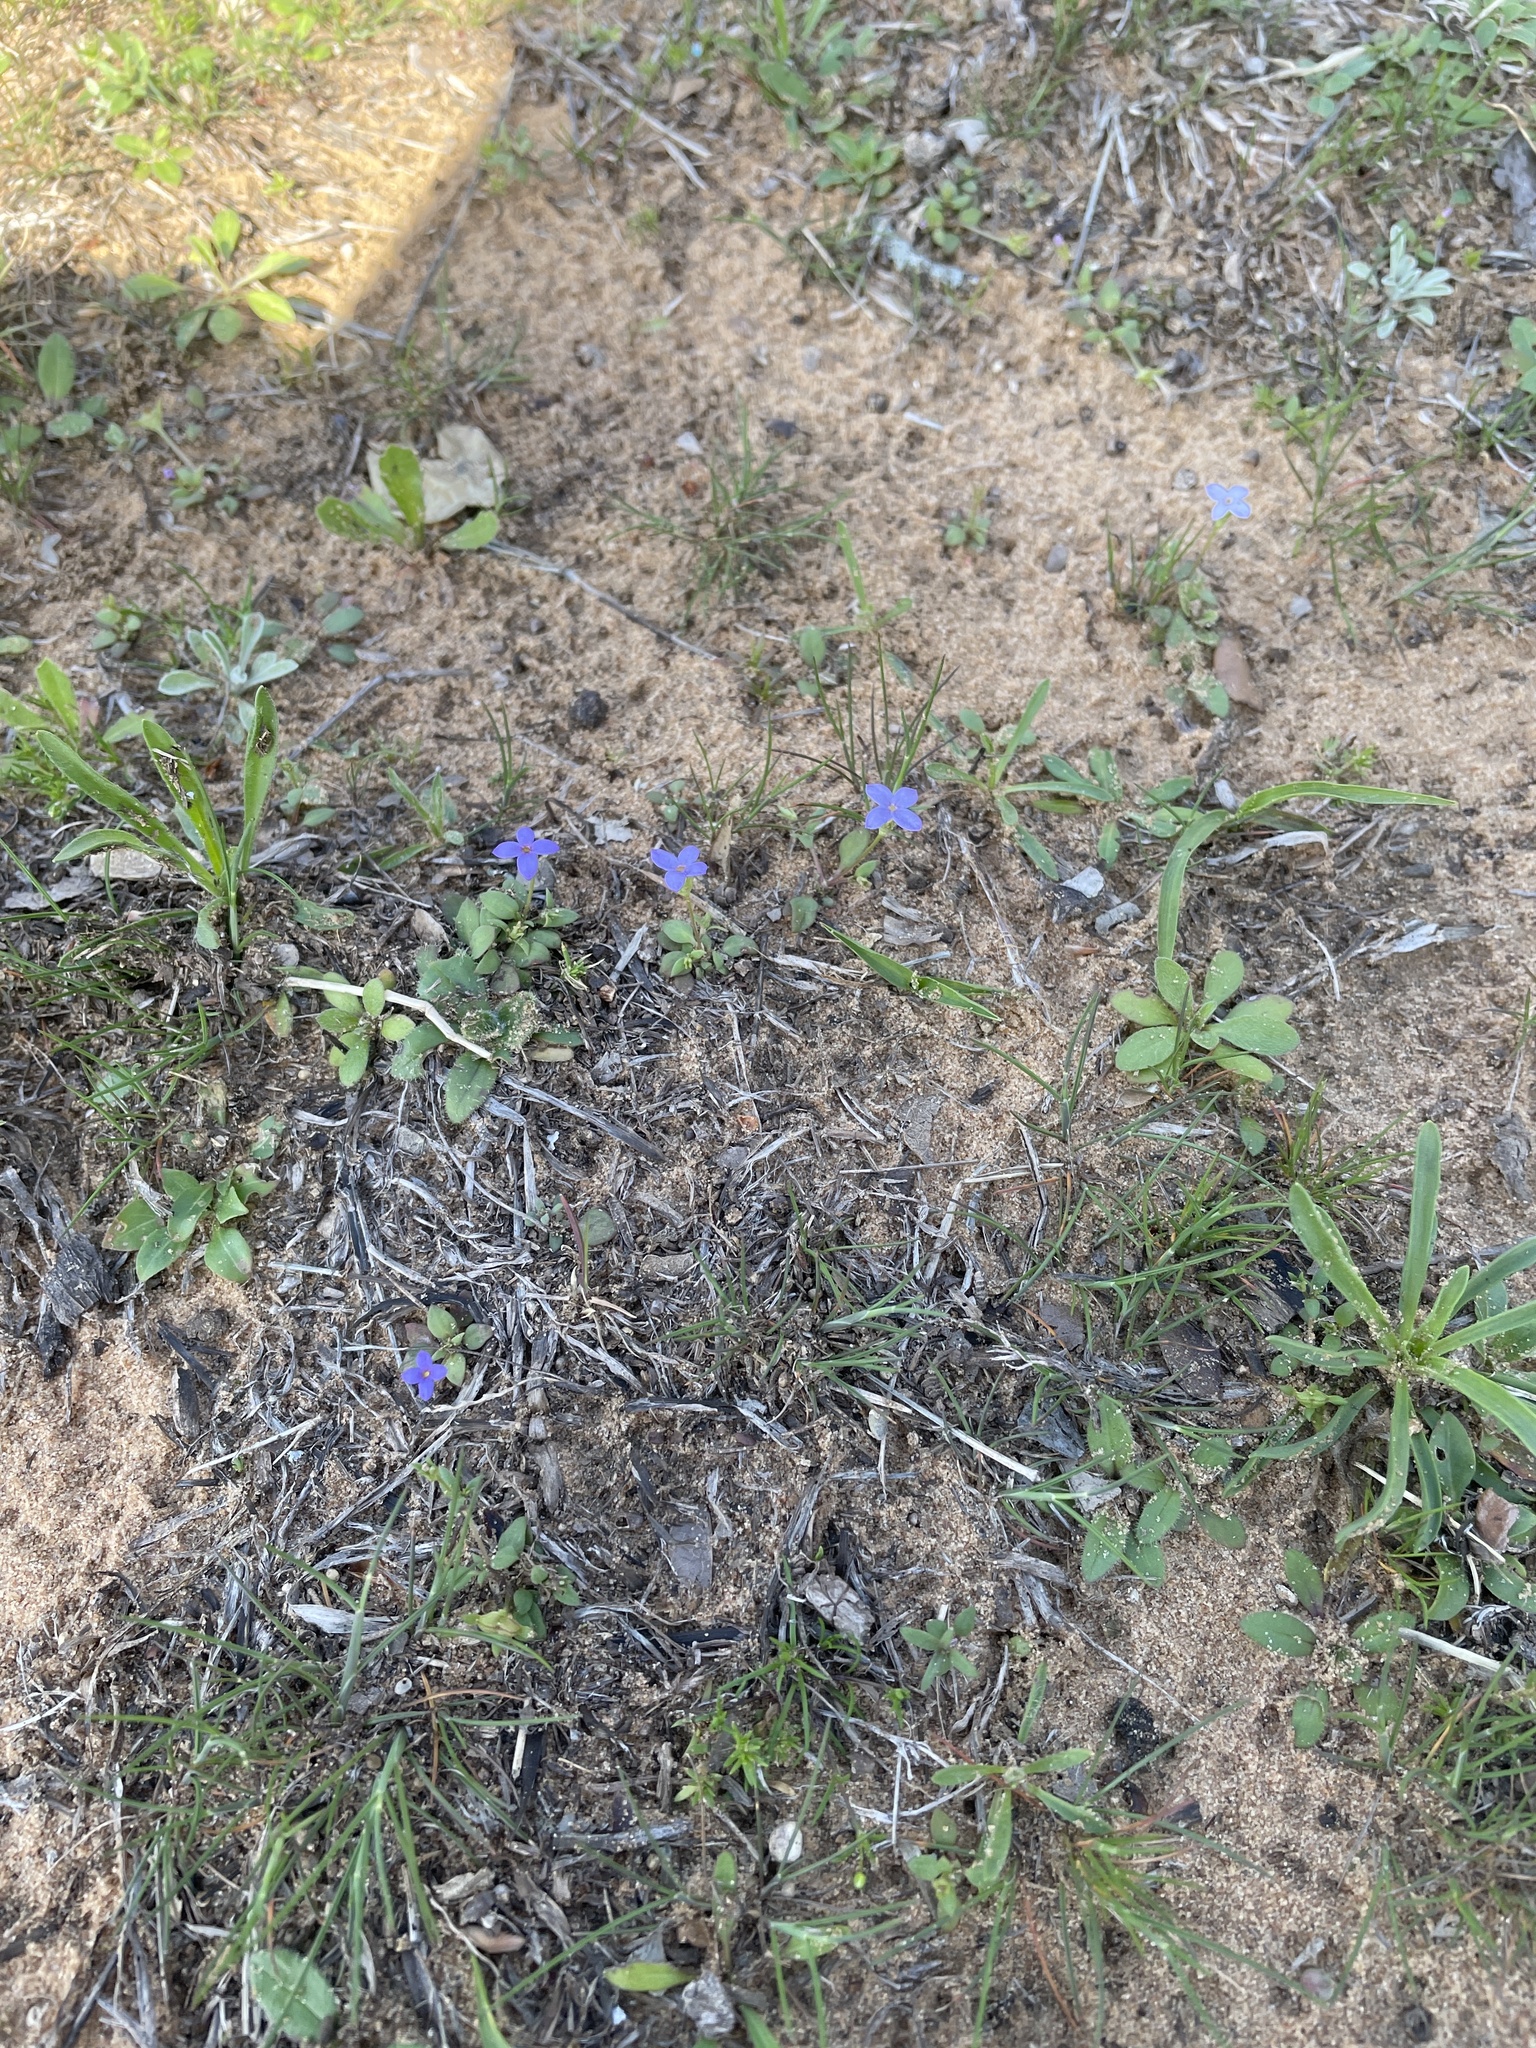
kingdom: Plantae
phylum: Tracheophyta
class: Magnoliopsida
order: Gentianales
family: Rubiaceae
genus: Houstonia
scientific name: Houstonia pusilla
